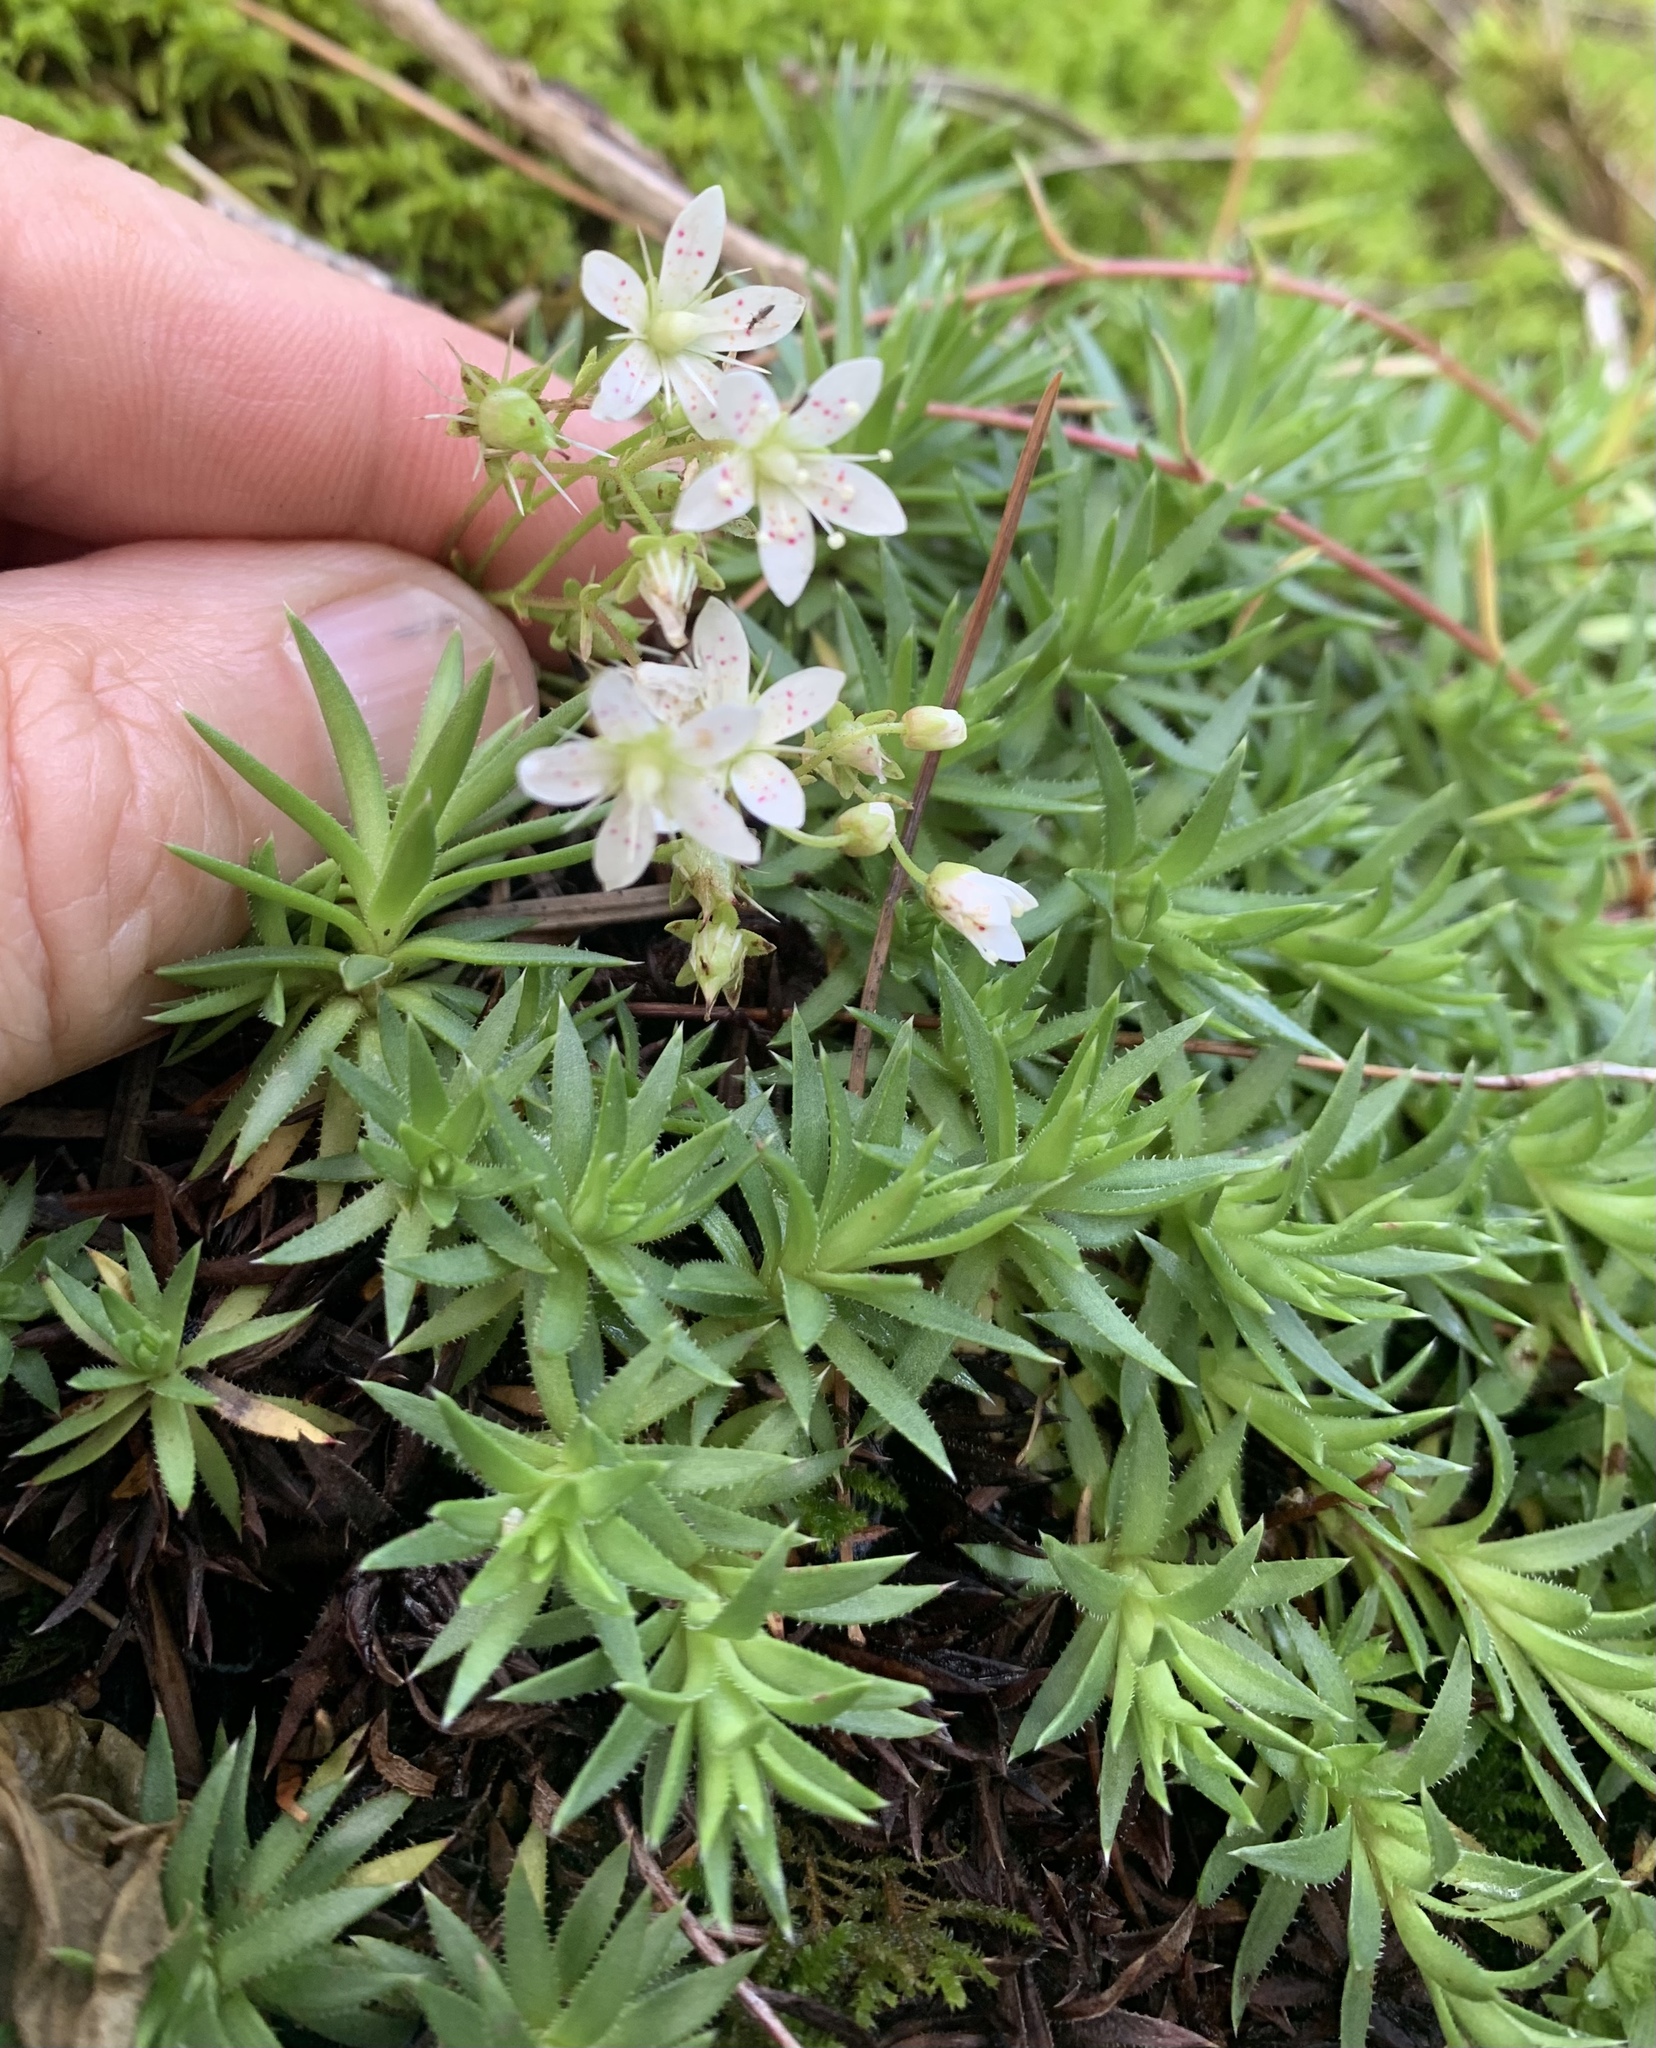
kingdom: Plantae
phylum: Tracheophyta
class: Magnoliopsida
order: Saxifragales
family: Saxifragaceae
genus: Saxifraga
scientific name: Saxifraga bronchialis
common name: Matted saxifrage
